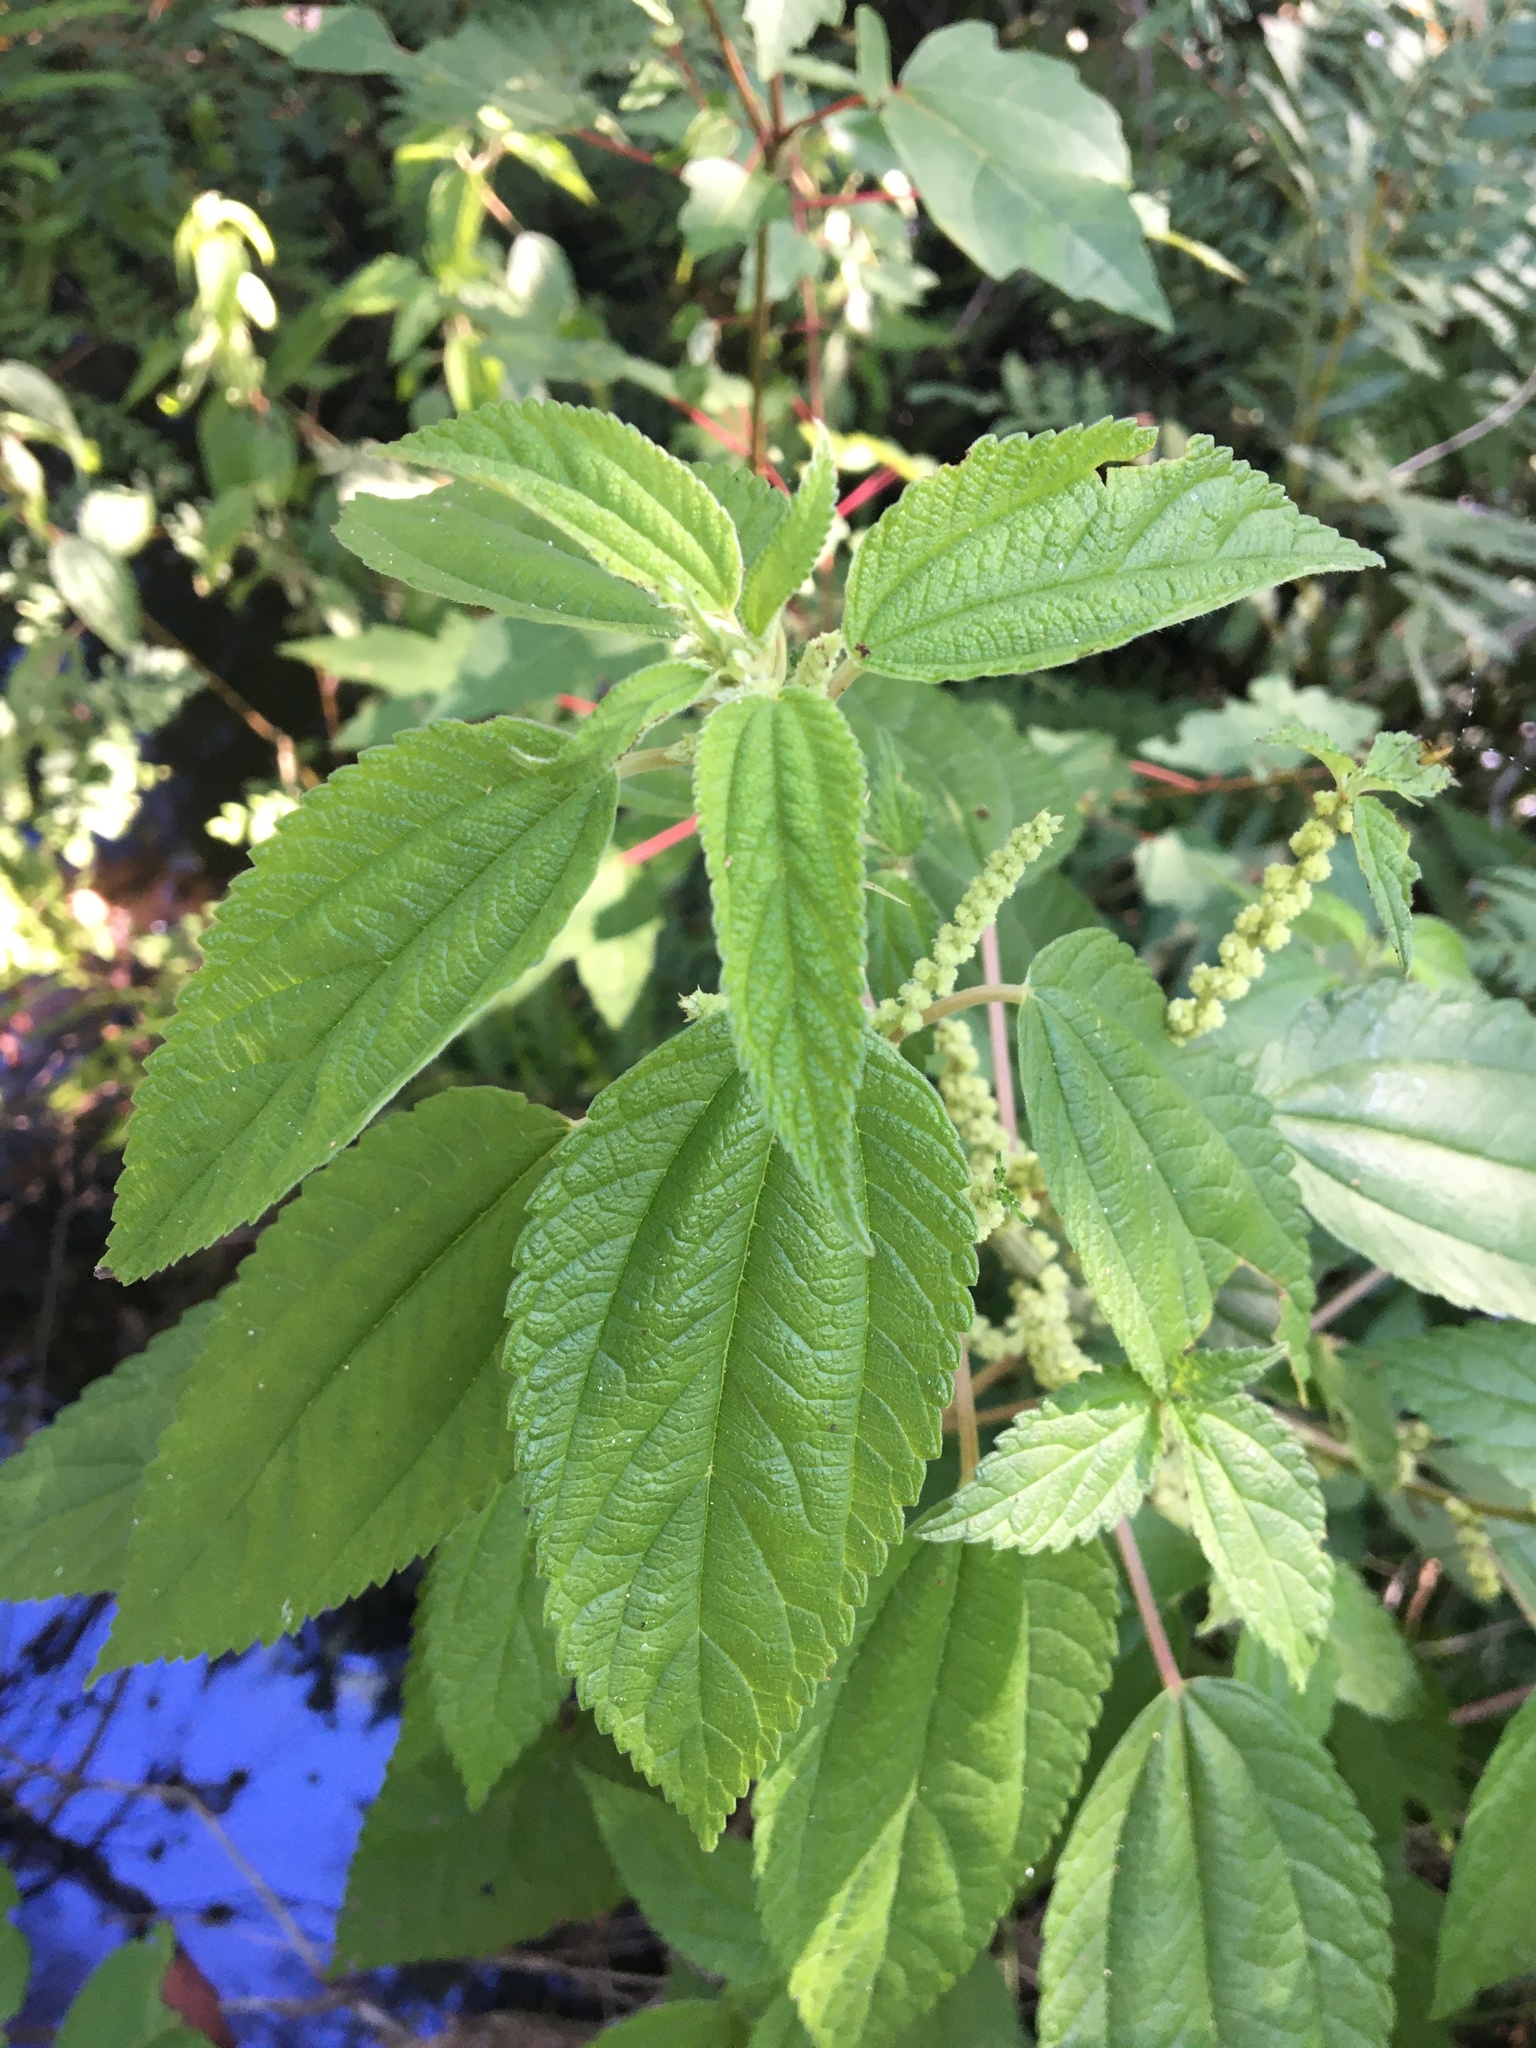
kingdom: Plantae
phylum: Tracheophyta
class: Magnoliopsida
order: Rosales
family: Urticaceae
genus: Boehmeria
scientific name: Boehmeria cylindrica
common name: Bog-hemp
